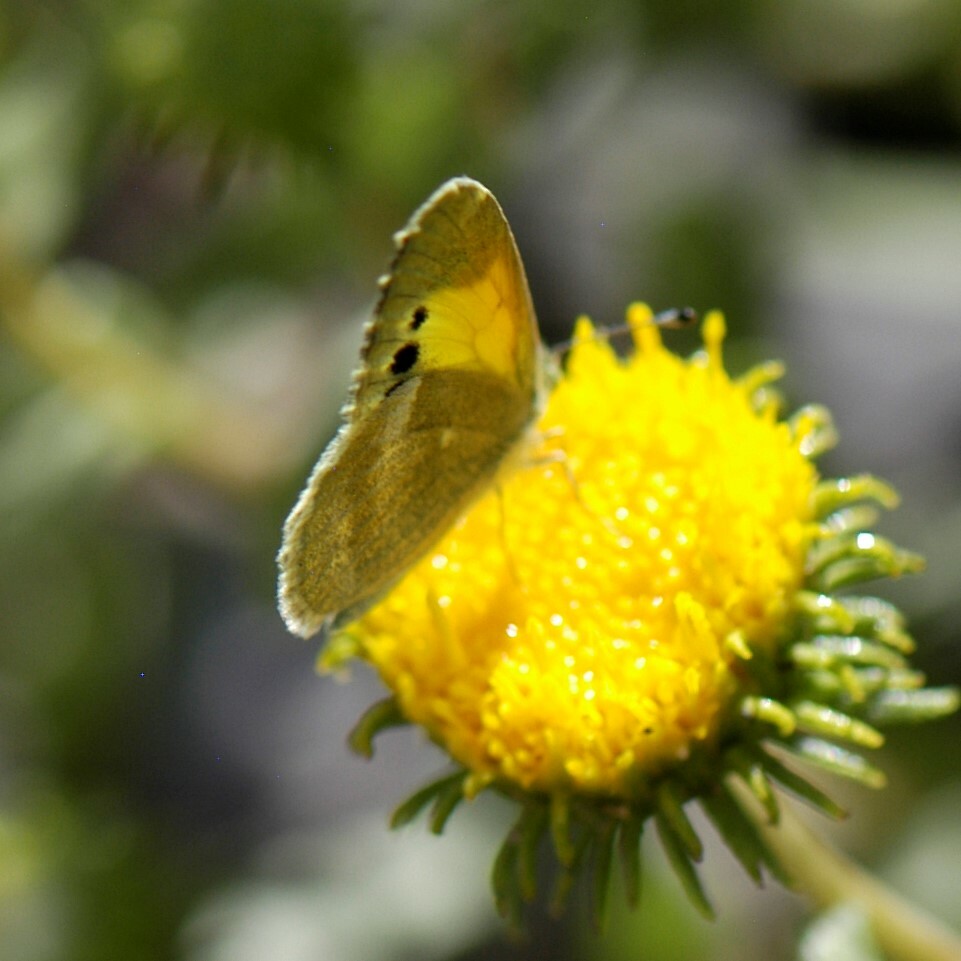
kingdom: Animalia
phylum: Arthropoda
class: Insecta
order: Lepidoptera
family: Pieridae
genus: Nathalis
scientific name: Nathalis iole
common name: Dainty sulphur
